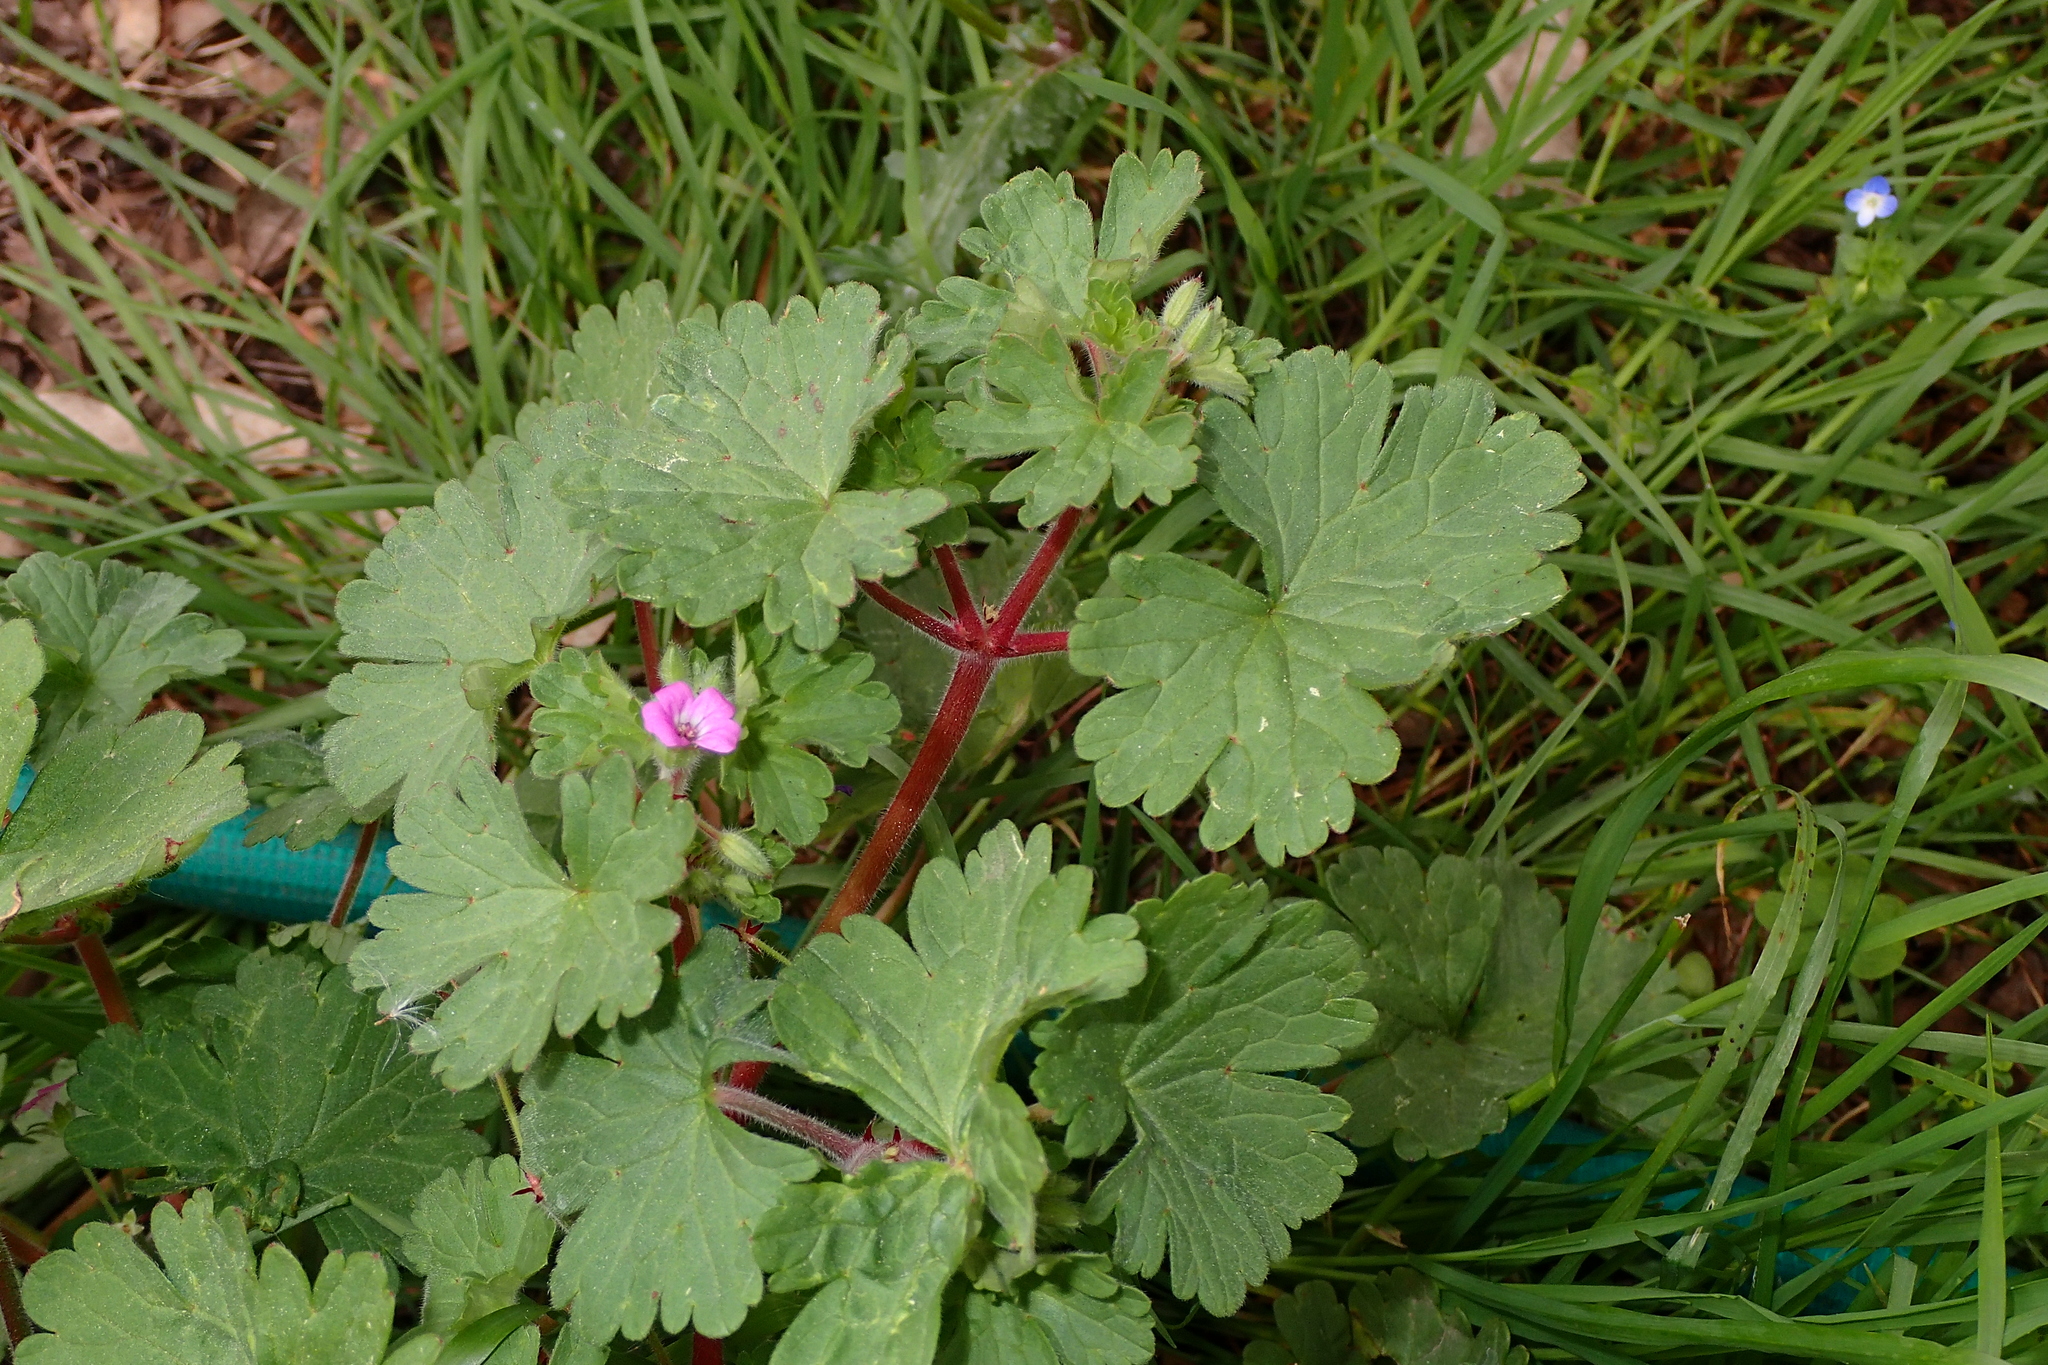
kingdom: Plantae
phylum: Tracheophyta
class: Magnoliopsida
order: Geraniales
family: Geraniaceae
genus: Geranium
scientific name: Geranium rotundifolium
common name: Round-leaved crane's-bill
